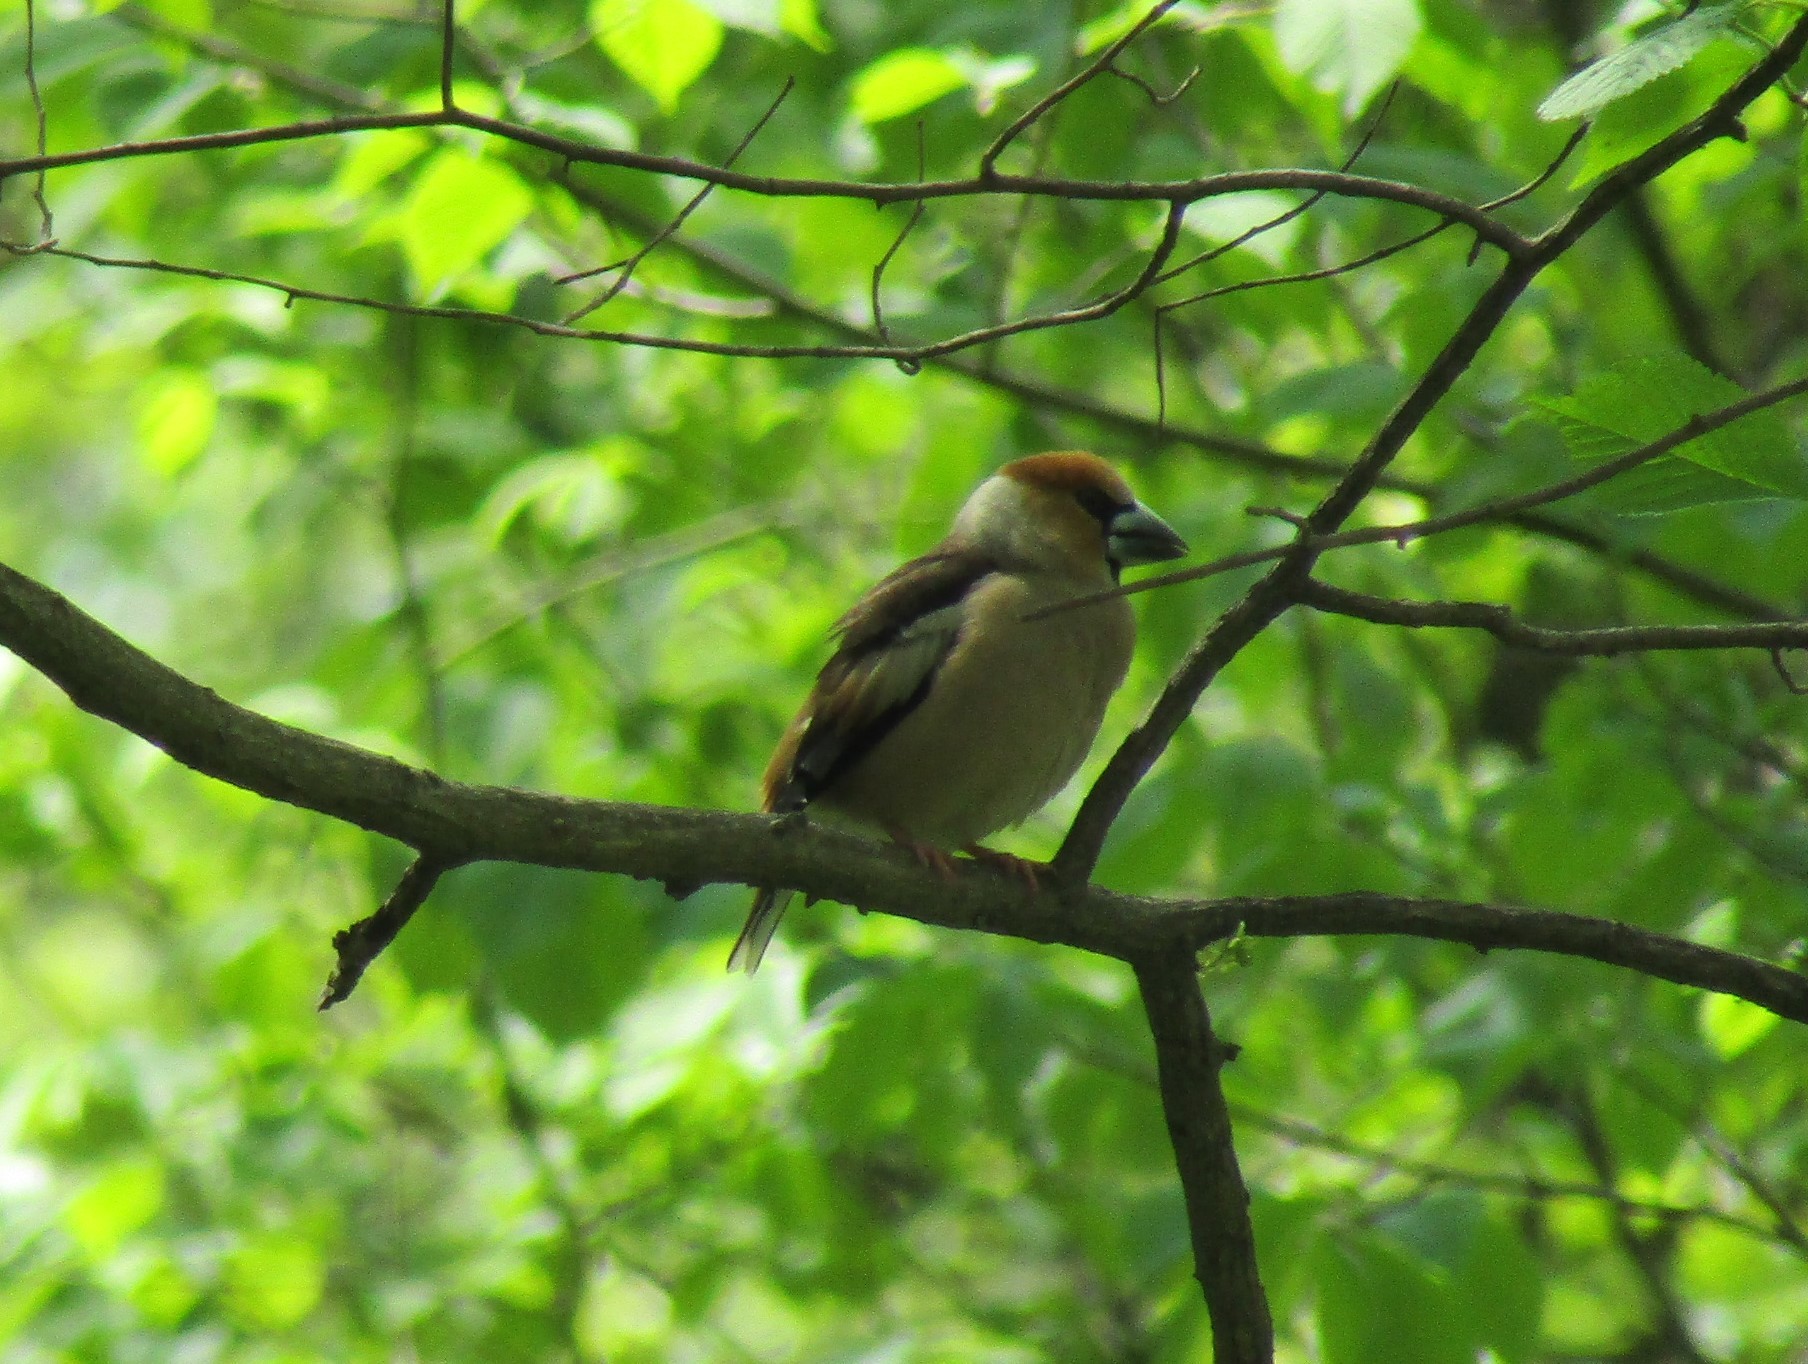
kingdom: Animalia
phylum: Chordata
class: Aves
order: Passeriformes
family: Fringillidae
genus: Coccothraustes
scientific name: Coccothraustes coccothraustes
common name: Hawfinch
